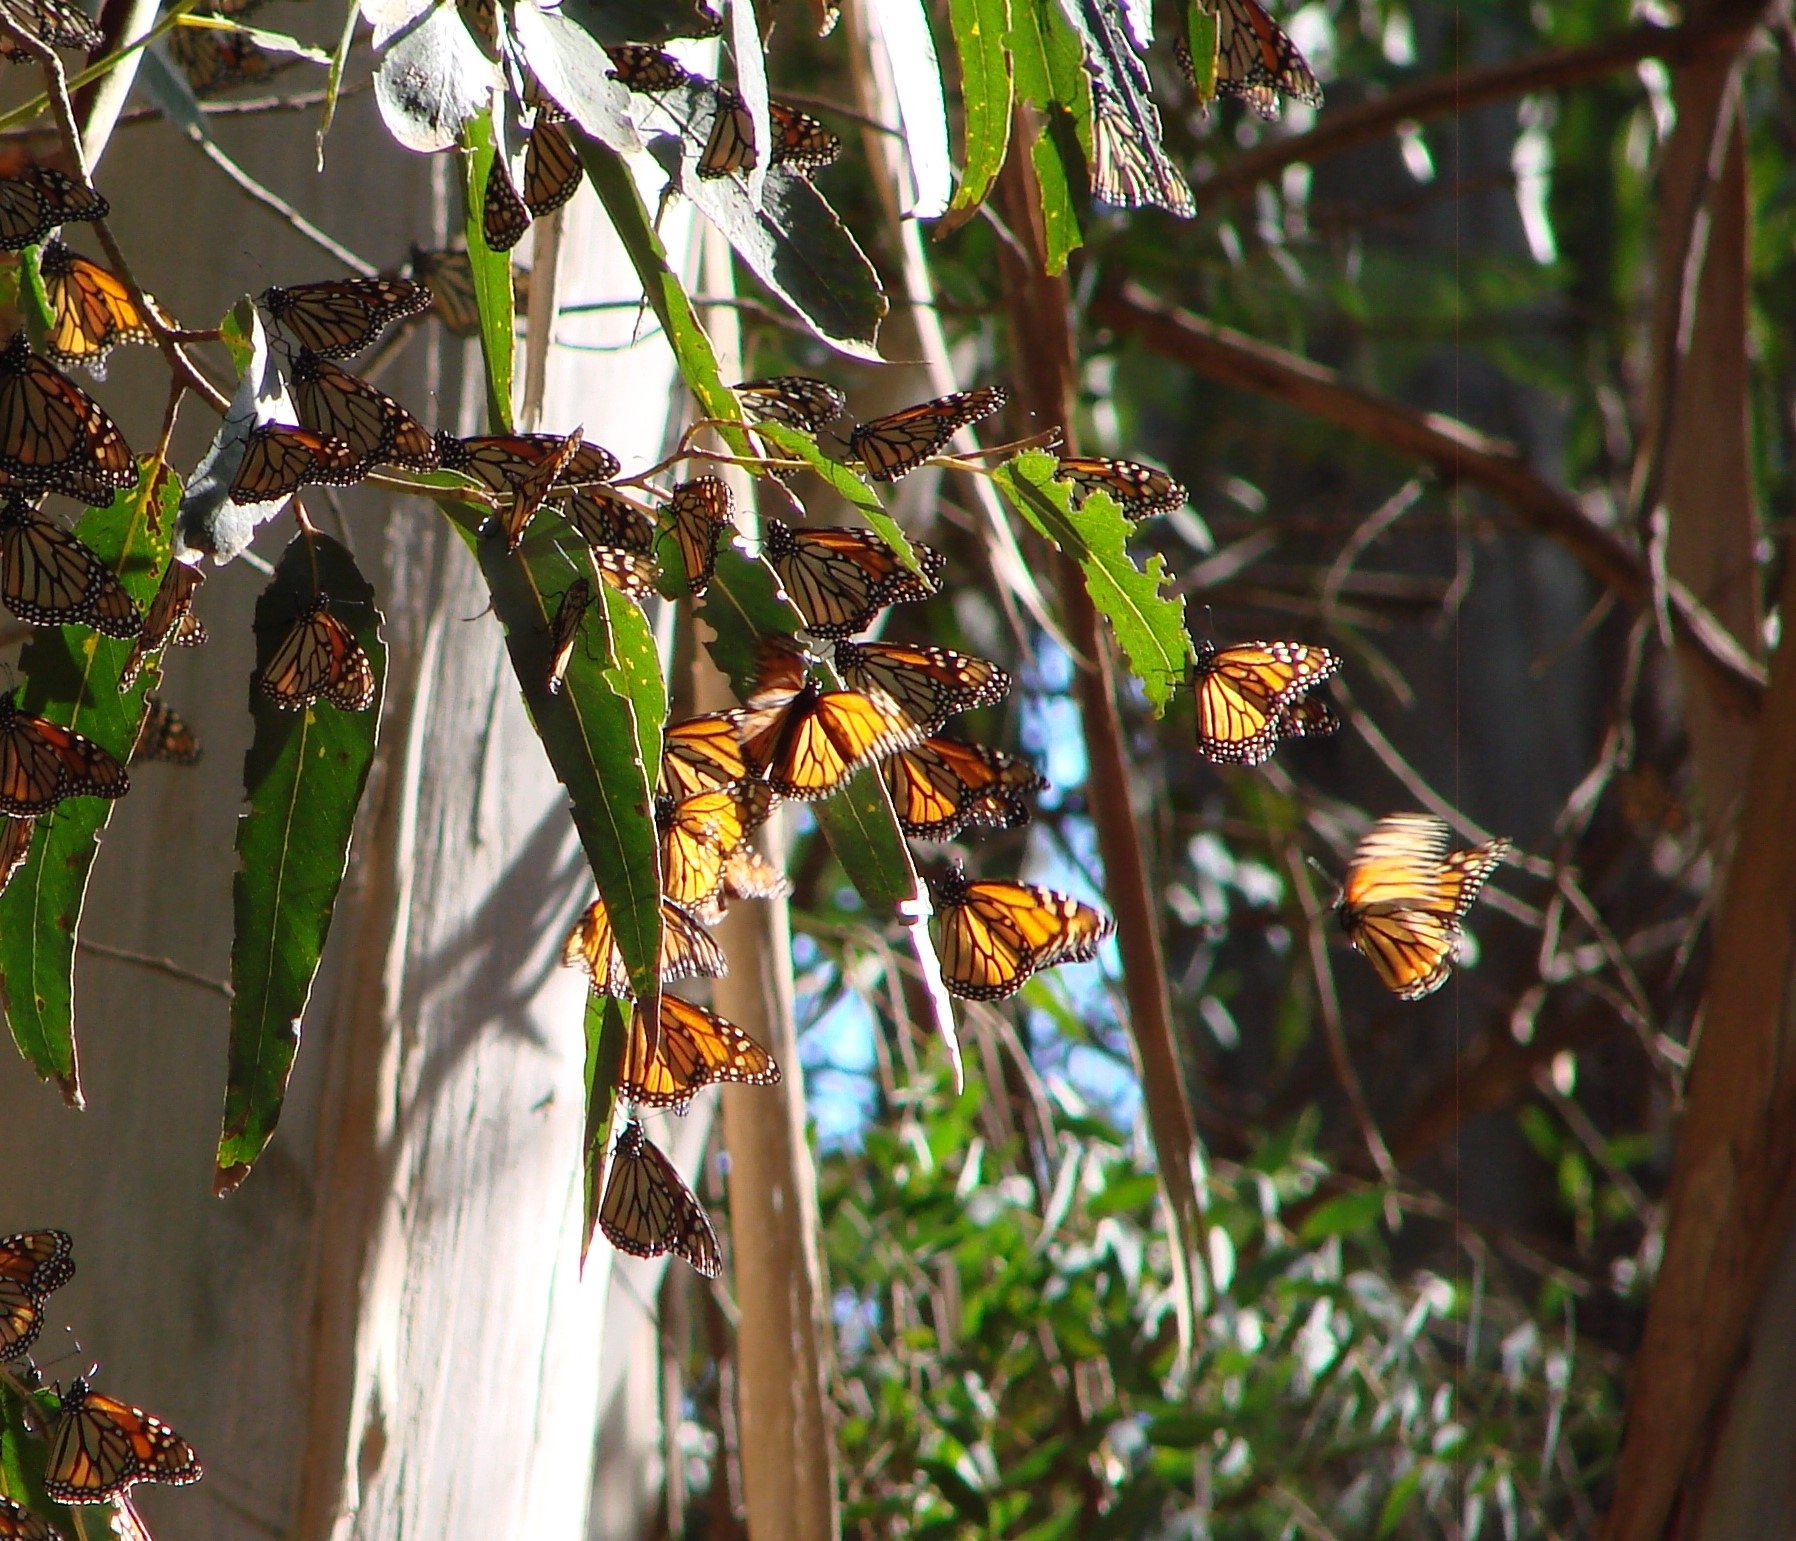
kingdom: Animalia
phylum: Arthropoda
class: Insecta
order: Lepidoptera
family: Nymphalidae
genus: Danaus
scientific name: Danaus plexippus
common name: Monarch
